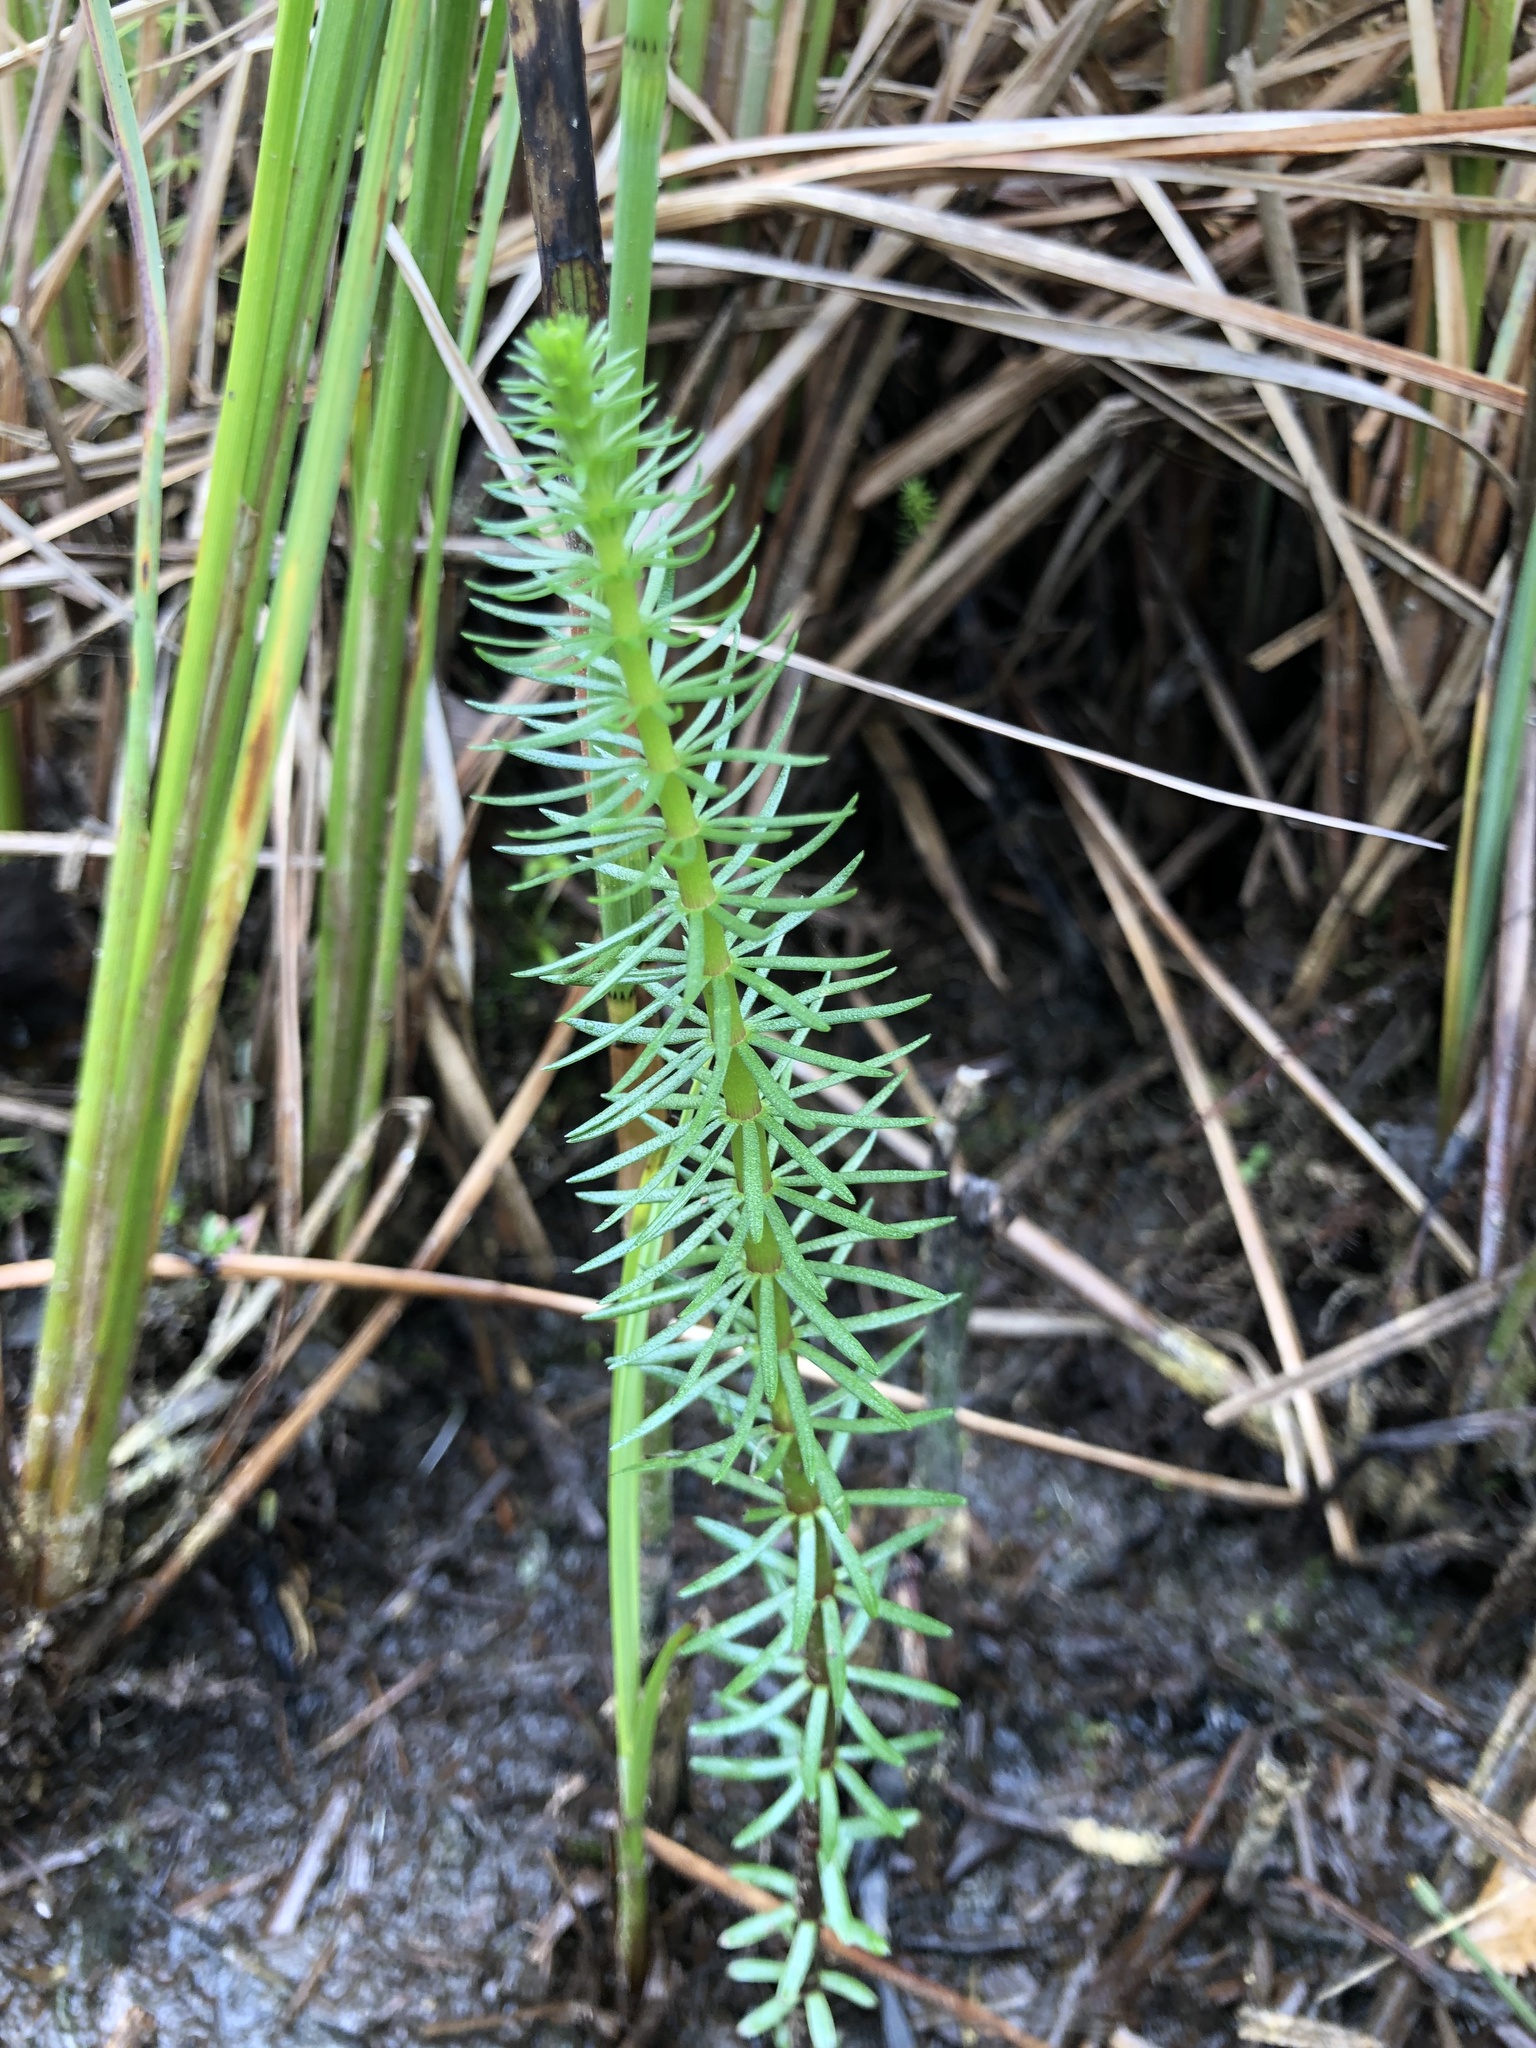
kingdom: Plantae
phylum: Tracheophyta
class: Magnoliopsida
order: Lamiales
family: Plantaginaceae
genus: Hippuris
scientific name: Hippuris vulgaris
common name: Mare's-tail
